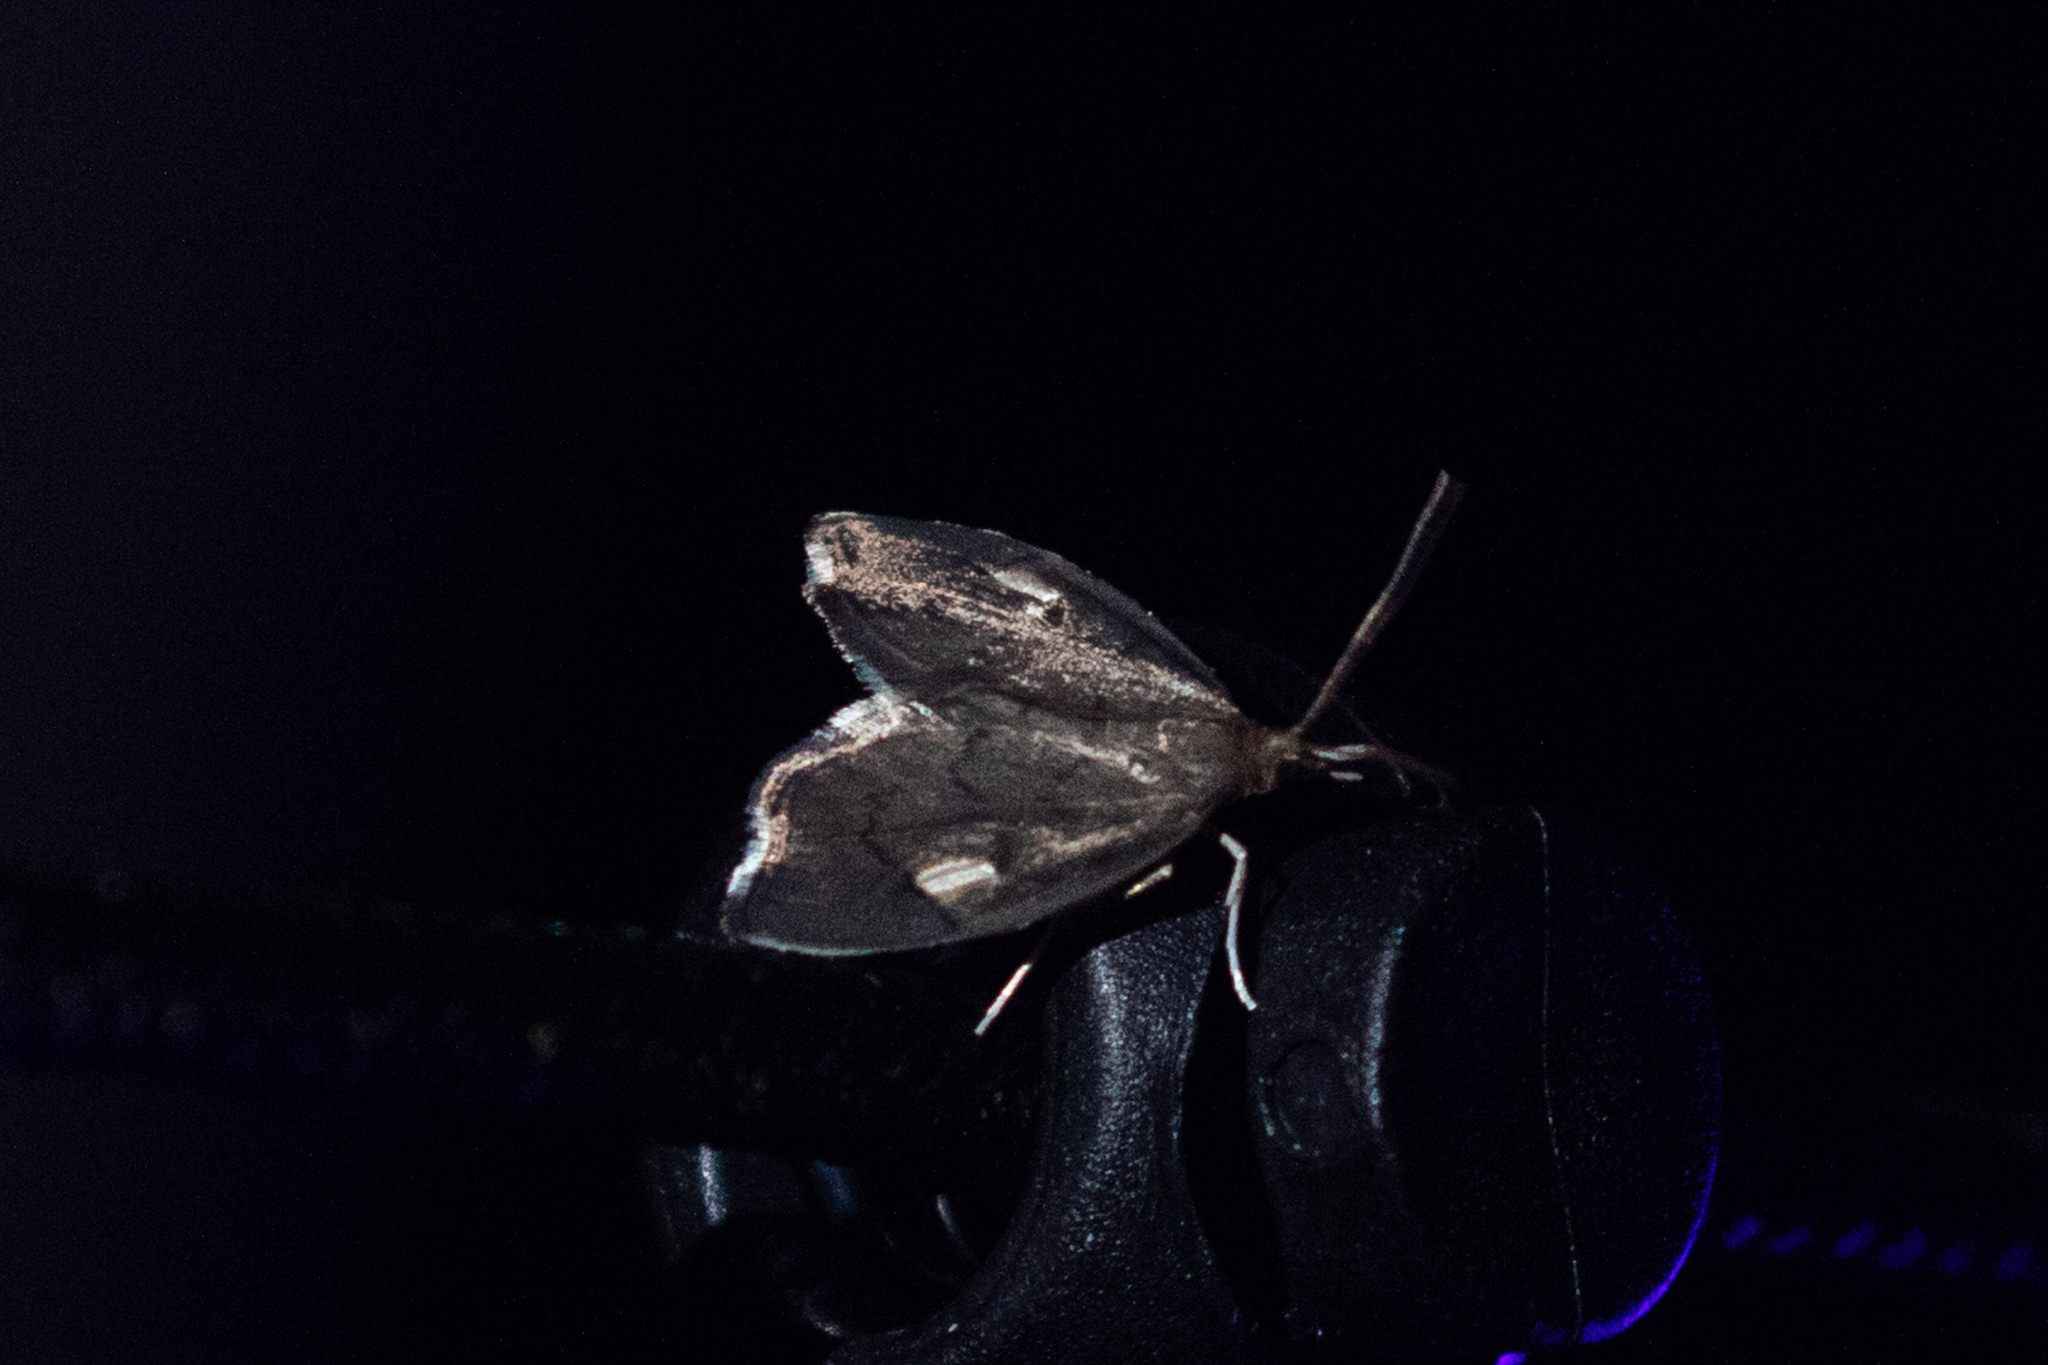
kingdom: Animalia
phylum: Arthropoda
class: Insecta
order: Lepidoptera
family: Crambidae
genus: Perispasta
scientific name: Perispasta caeculalis
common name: Titian peale's moth
